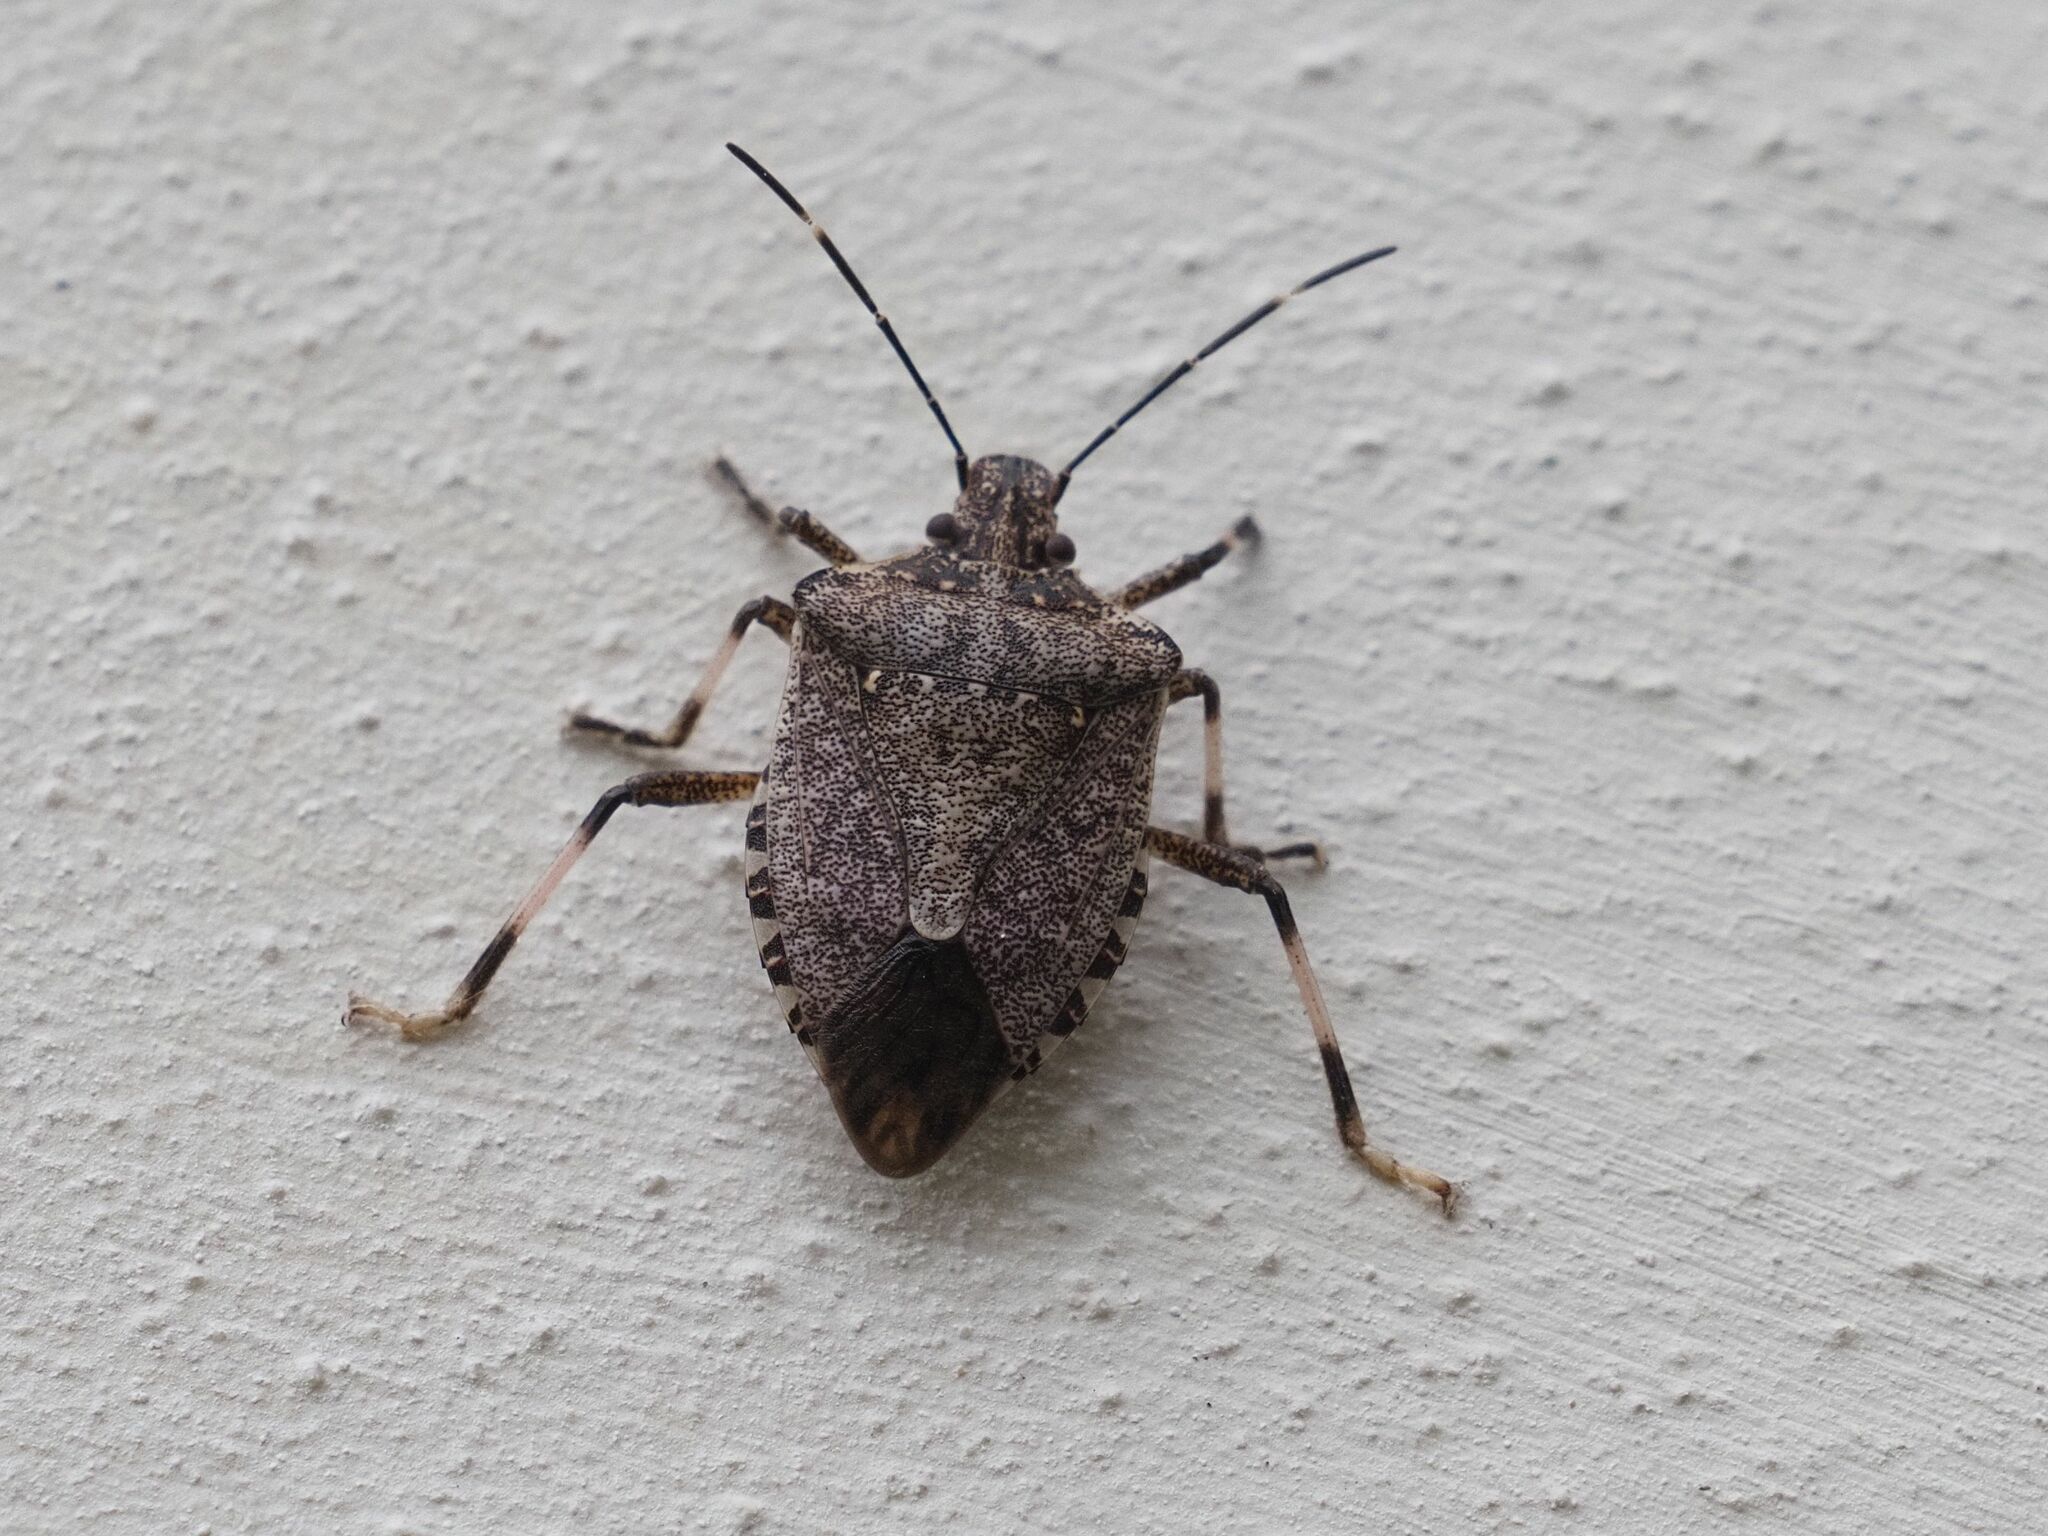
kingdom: Animalia
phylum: Arthropoda
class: Insecta
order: Hemiptera
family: Pentatomidae
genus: Halyomorpha
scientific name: Halyomorpha halys
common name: Brown marmorated stink bug
